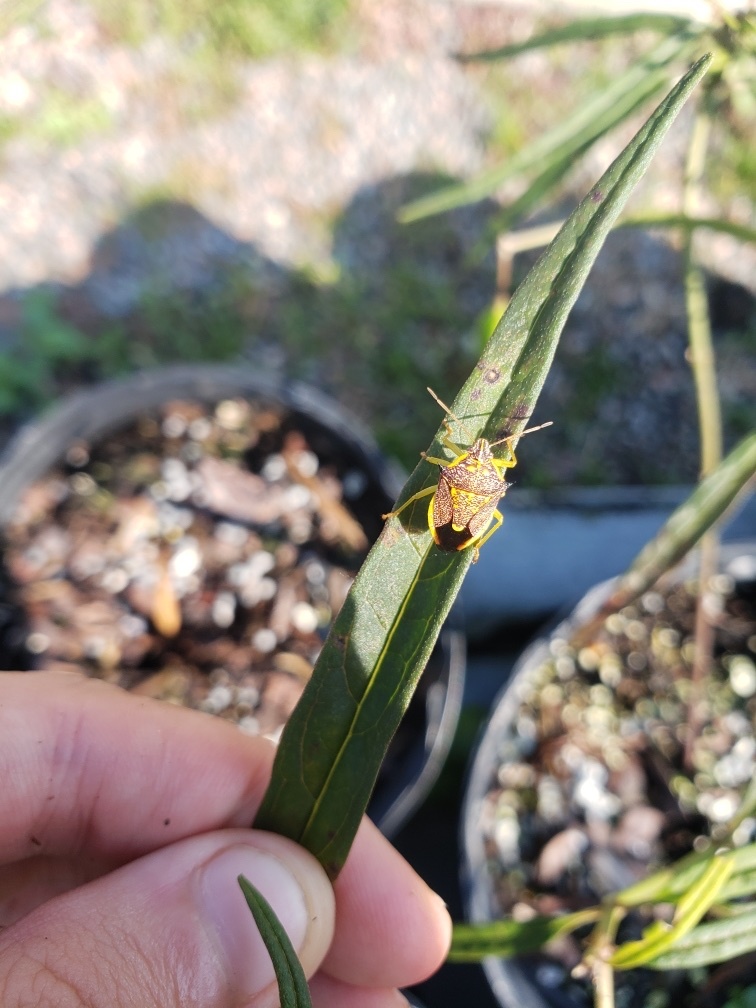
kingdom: Animalia
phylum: Arthropoda
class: Insecta
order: Hemiptera
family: Pentatomidae
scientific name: Pentatomidae
